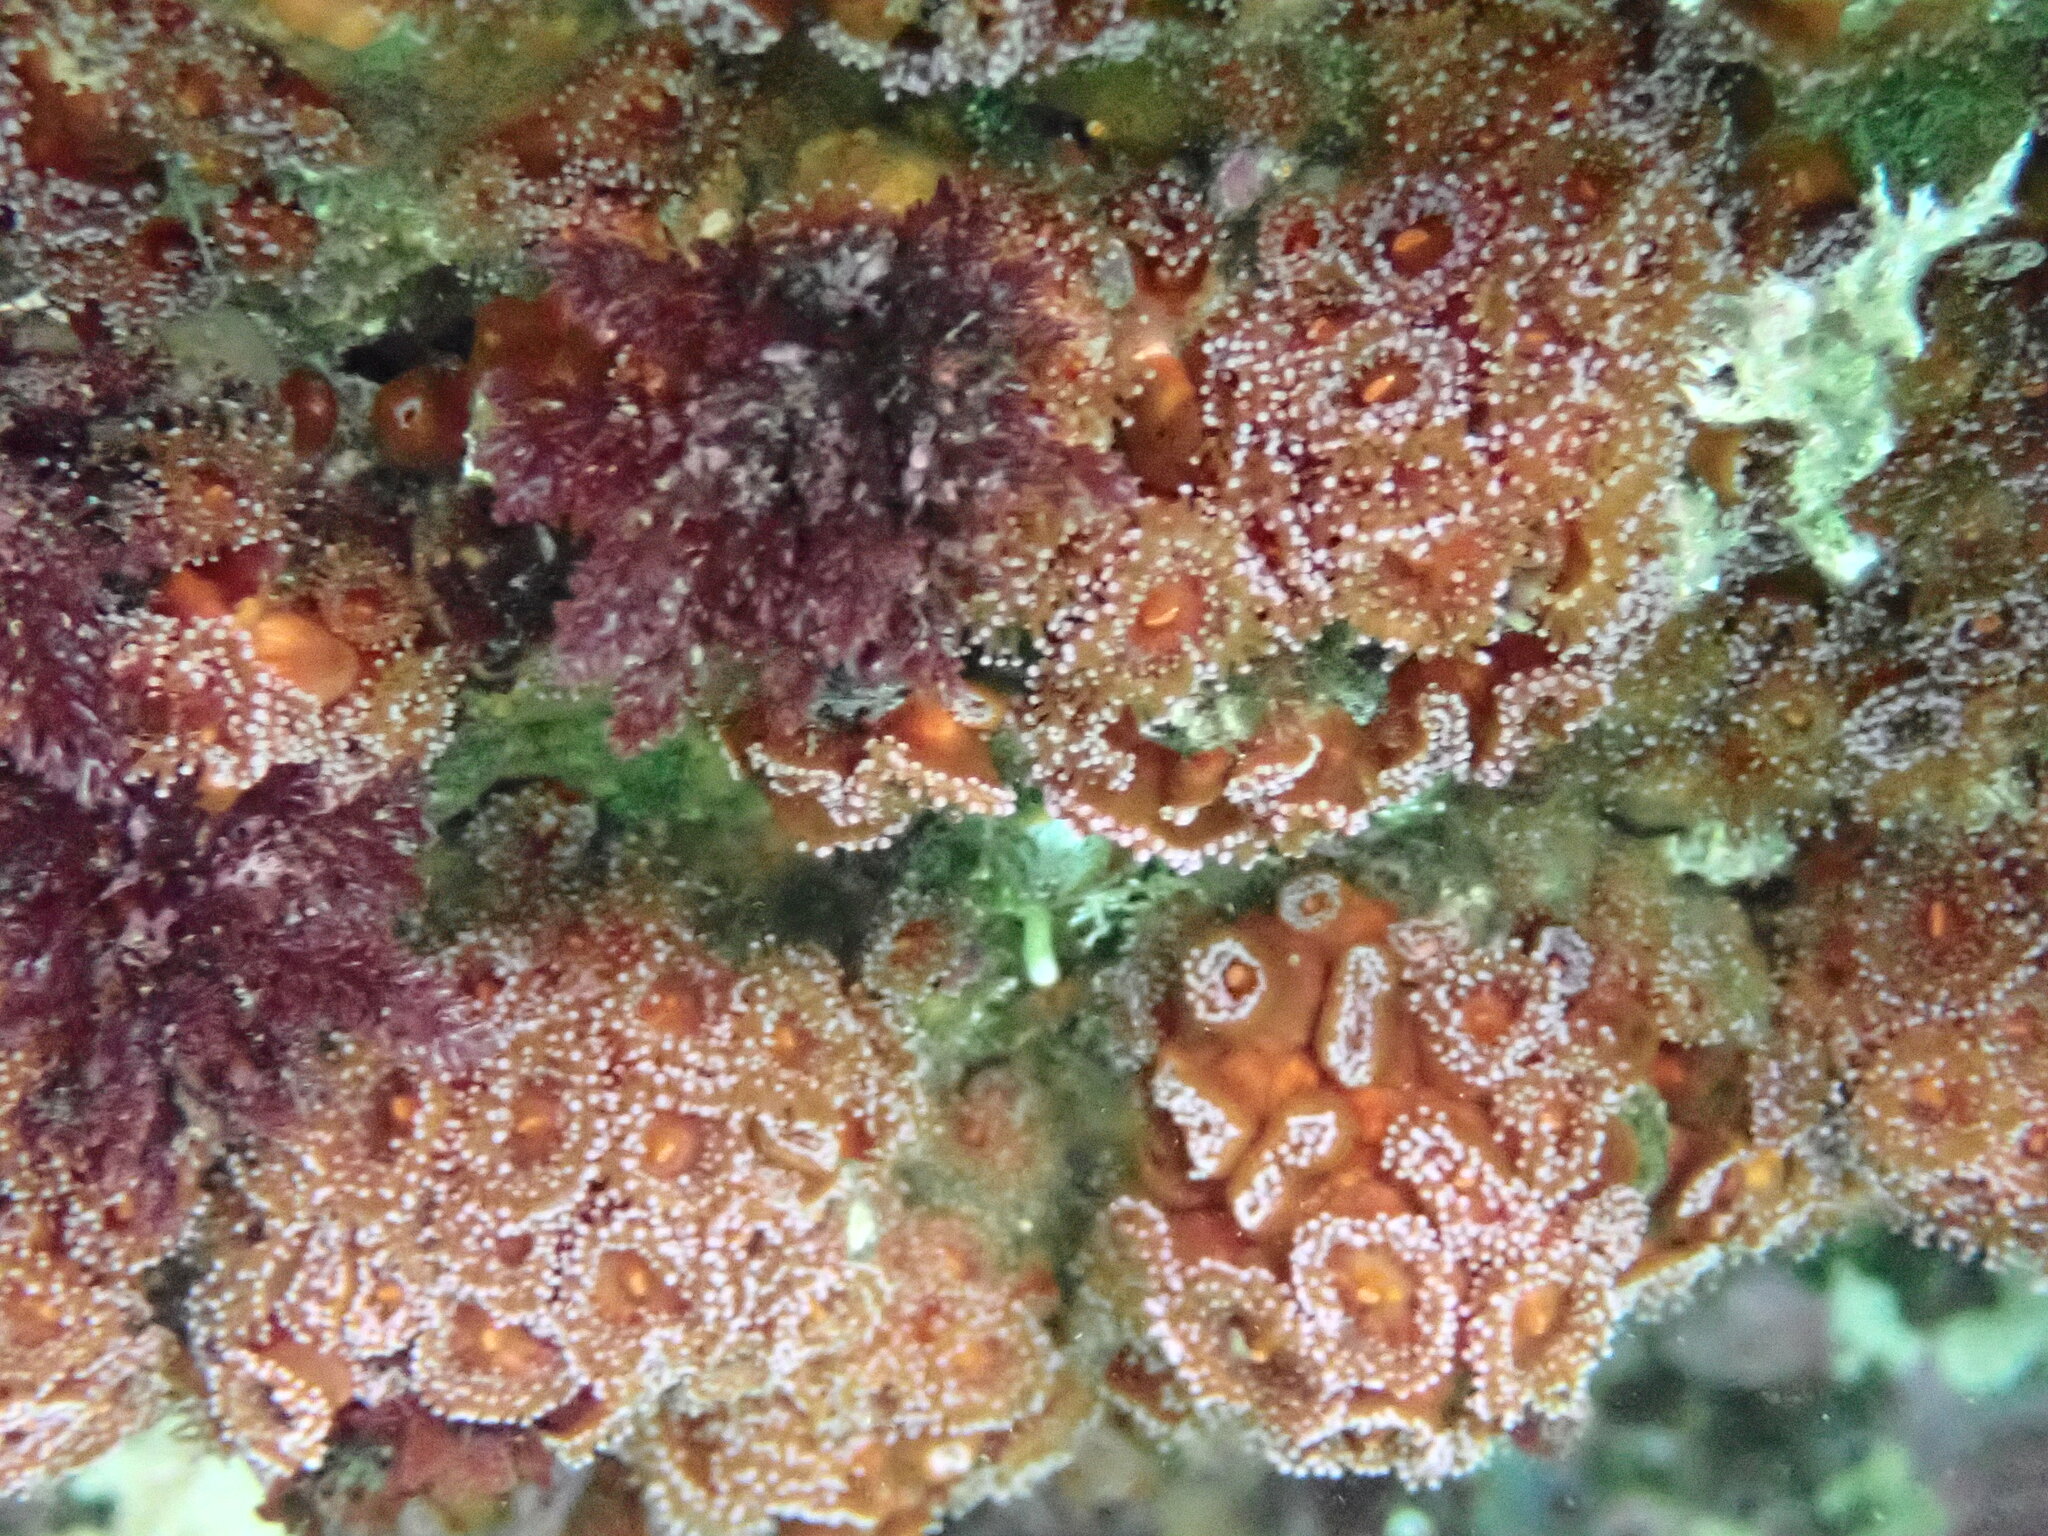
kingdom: Animalia
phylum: Cnidaria
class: Anthozoa
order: Corallimorpharia
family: Corallimorphidae
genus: Corynactis
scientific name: Corynactis australis
